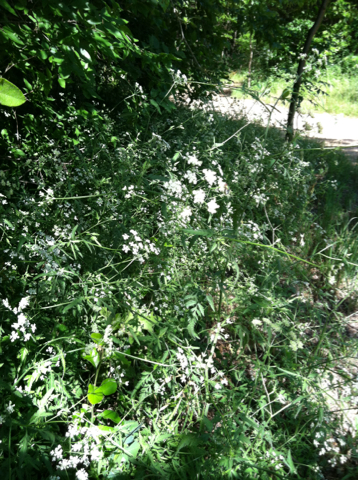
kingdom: Plantae
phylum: Tracheophyta
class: Magnoliopsida
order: Apiales
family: Apiaceae
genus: Torilis
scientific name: Torilis arvensis
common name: Spreading hedge-parsley
